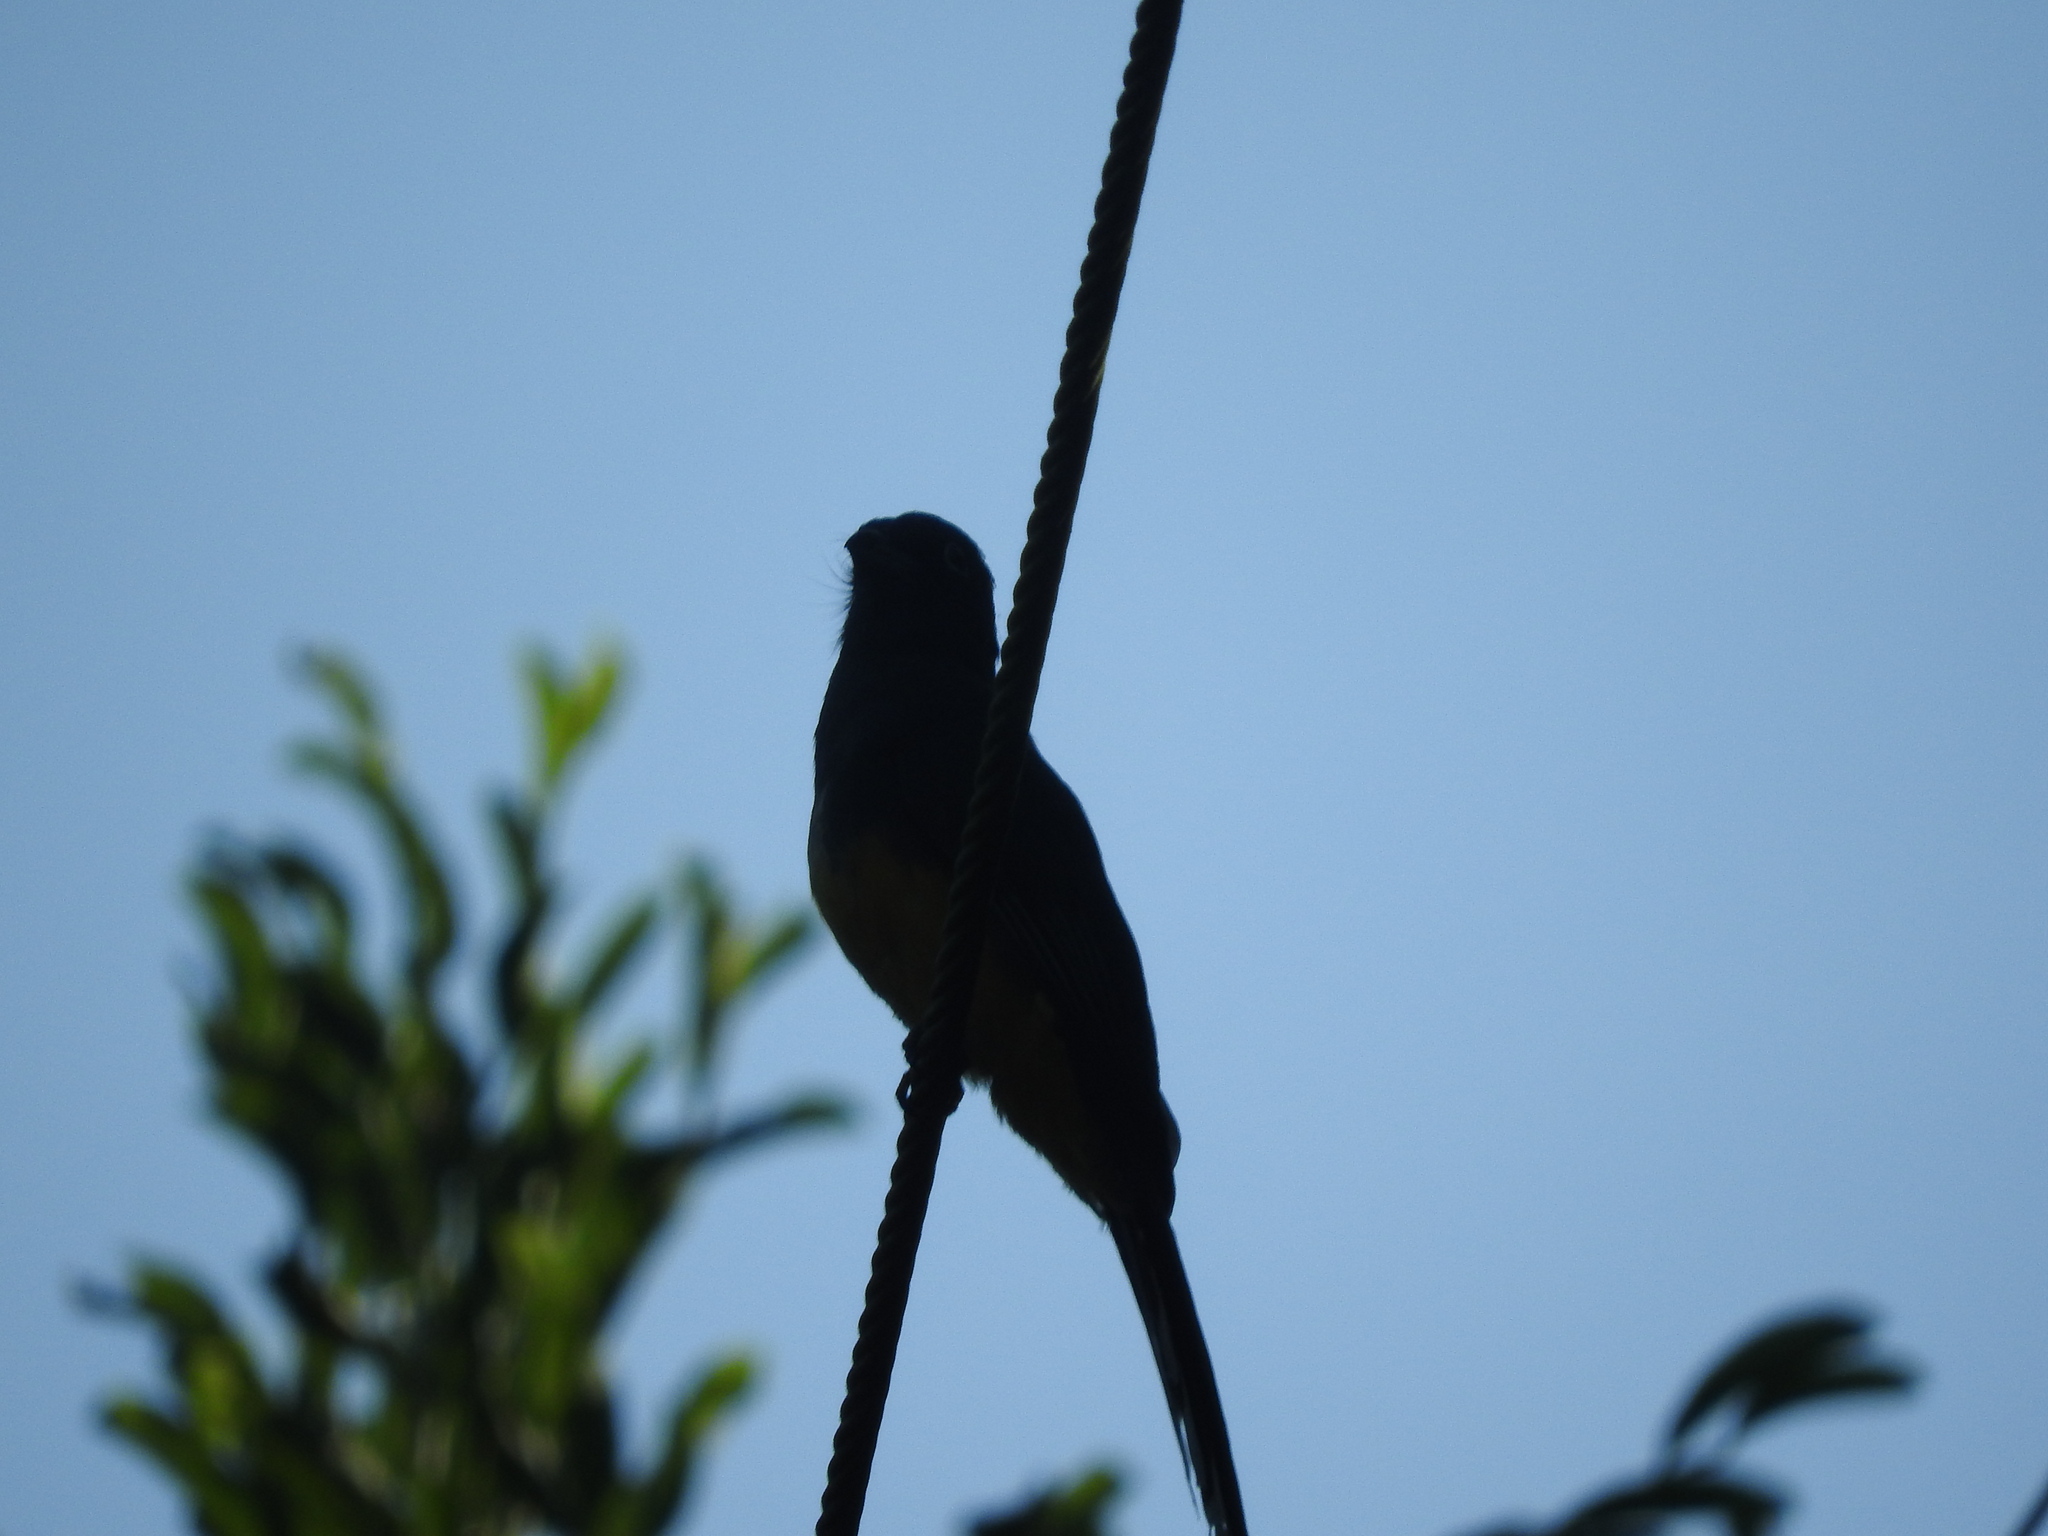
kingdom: Animalia
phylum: Chordata
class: Aves
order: Trogoniformes
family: Trogonidae
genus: Trogon
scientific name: Trogon melanocephalus
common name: Black-headed trogon
